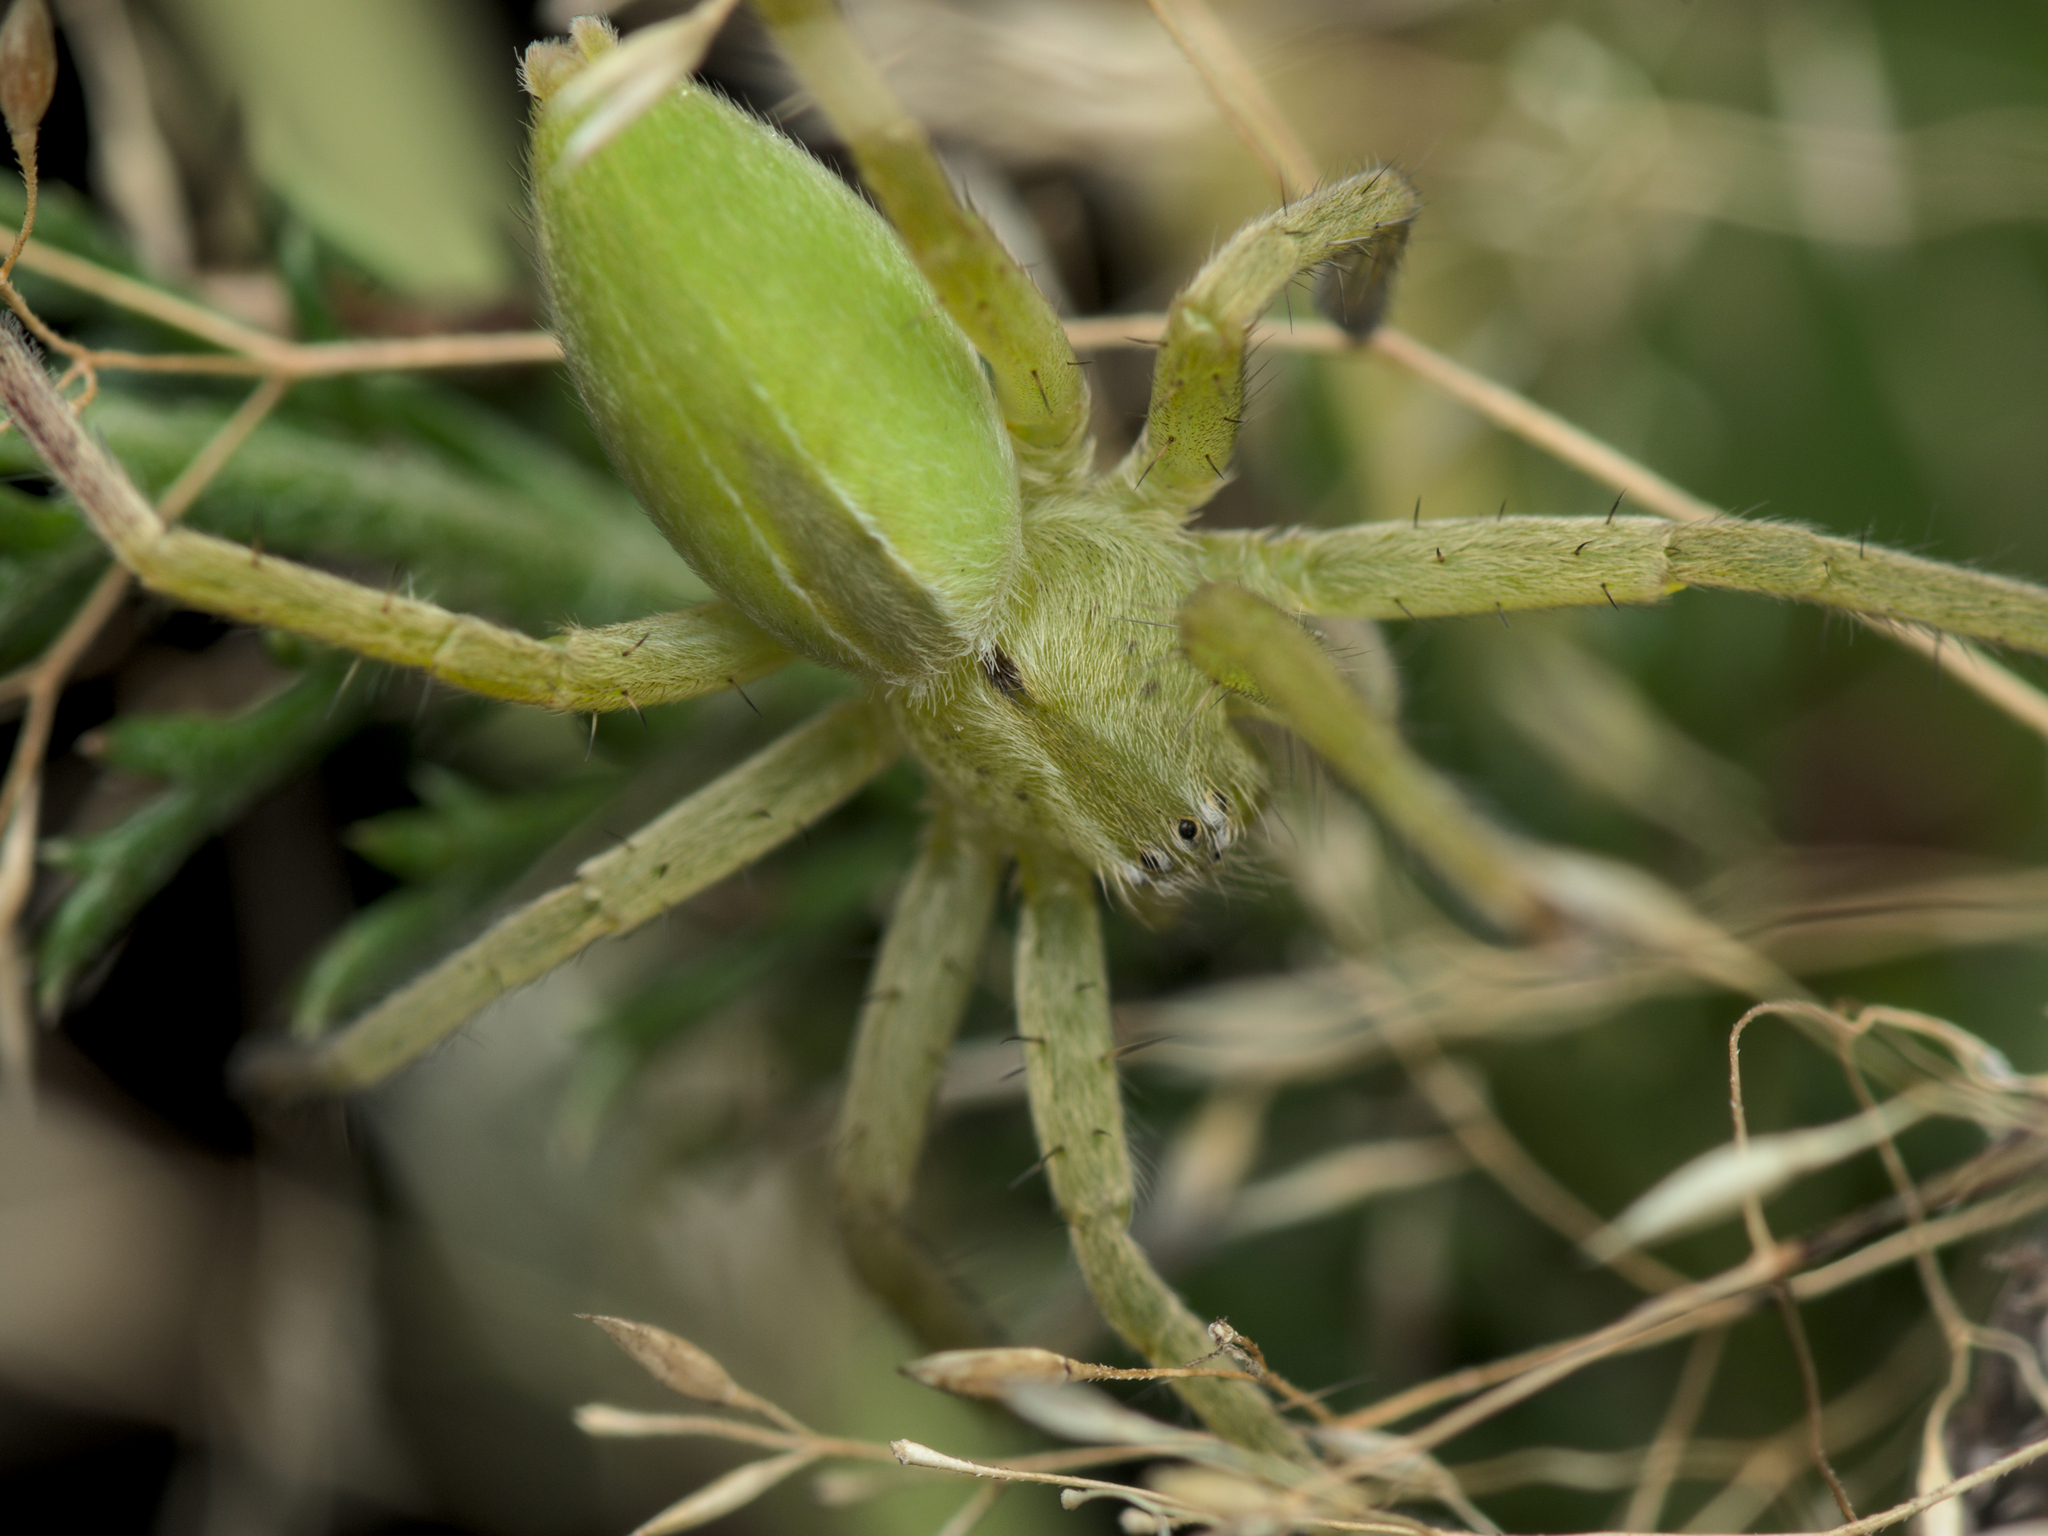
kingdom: Animalia
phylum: Arthropoda
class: Arachnida
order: Araneae
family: Sparassidae
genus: Micrommata
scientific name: Micrommata ligurina
